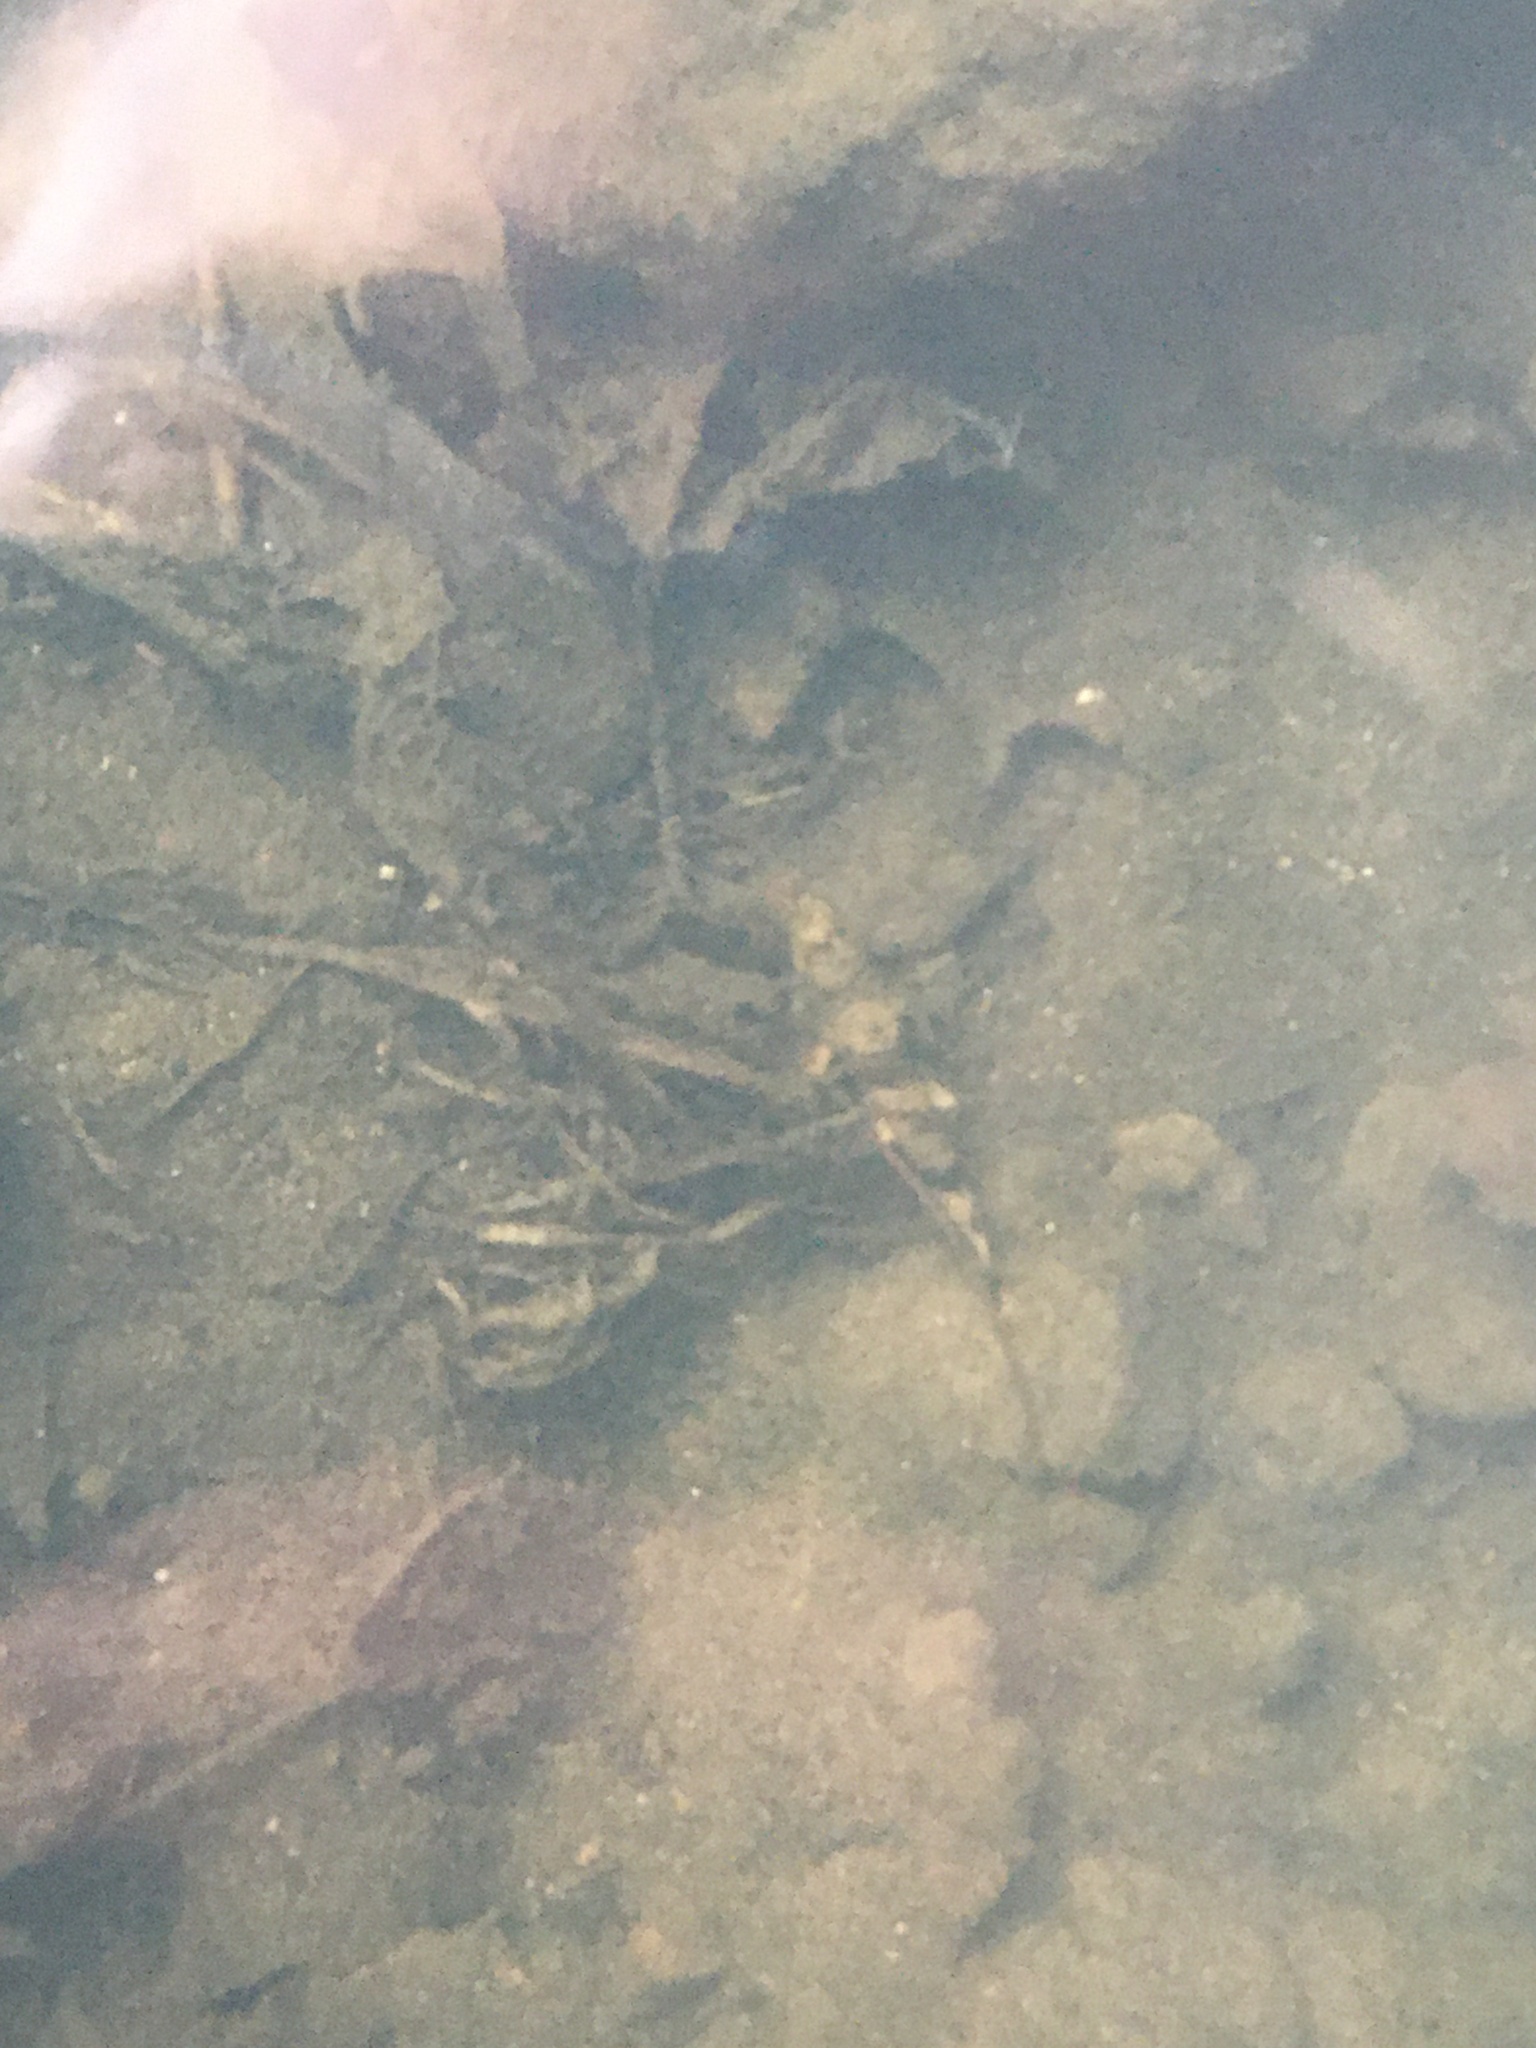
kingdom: Animalia
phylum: Chordata
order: Cypriniformes
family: Catostomidae
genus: Hypentelium
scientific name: Hypentelium nigricans
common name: Northern hog sucker
